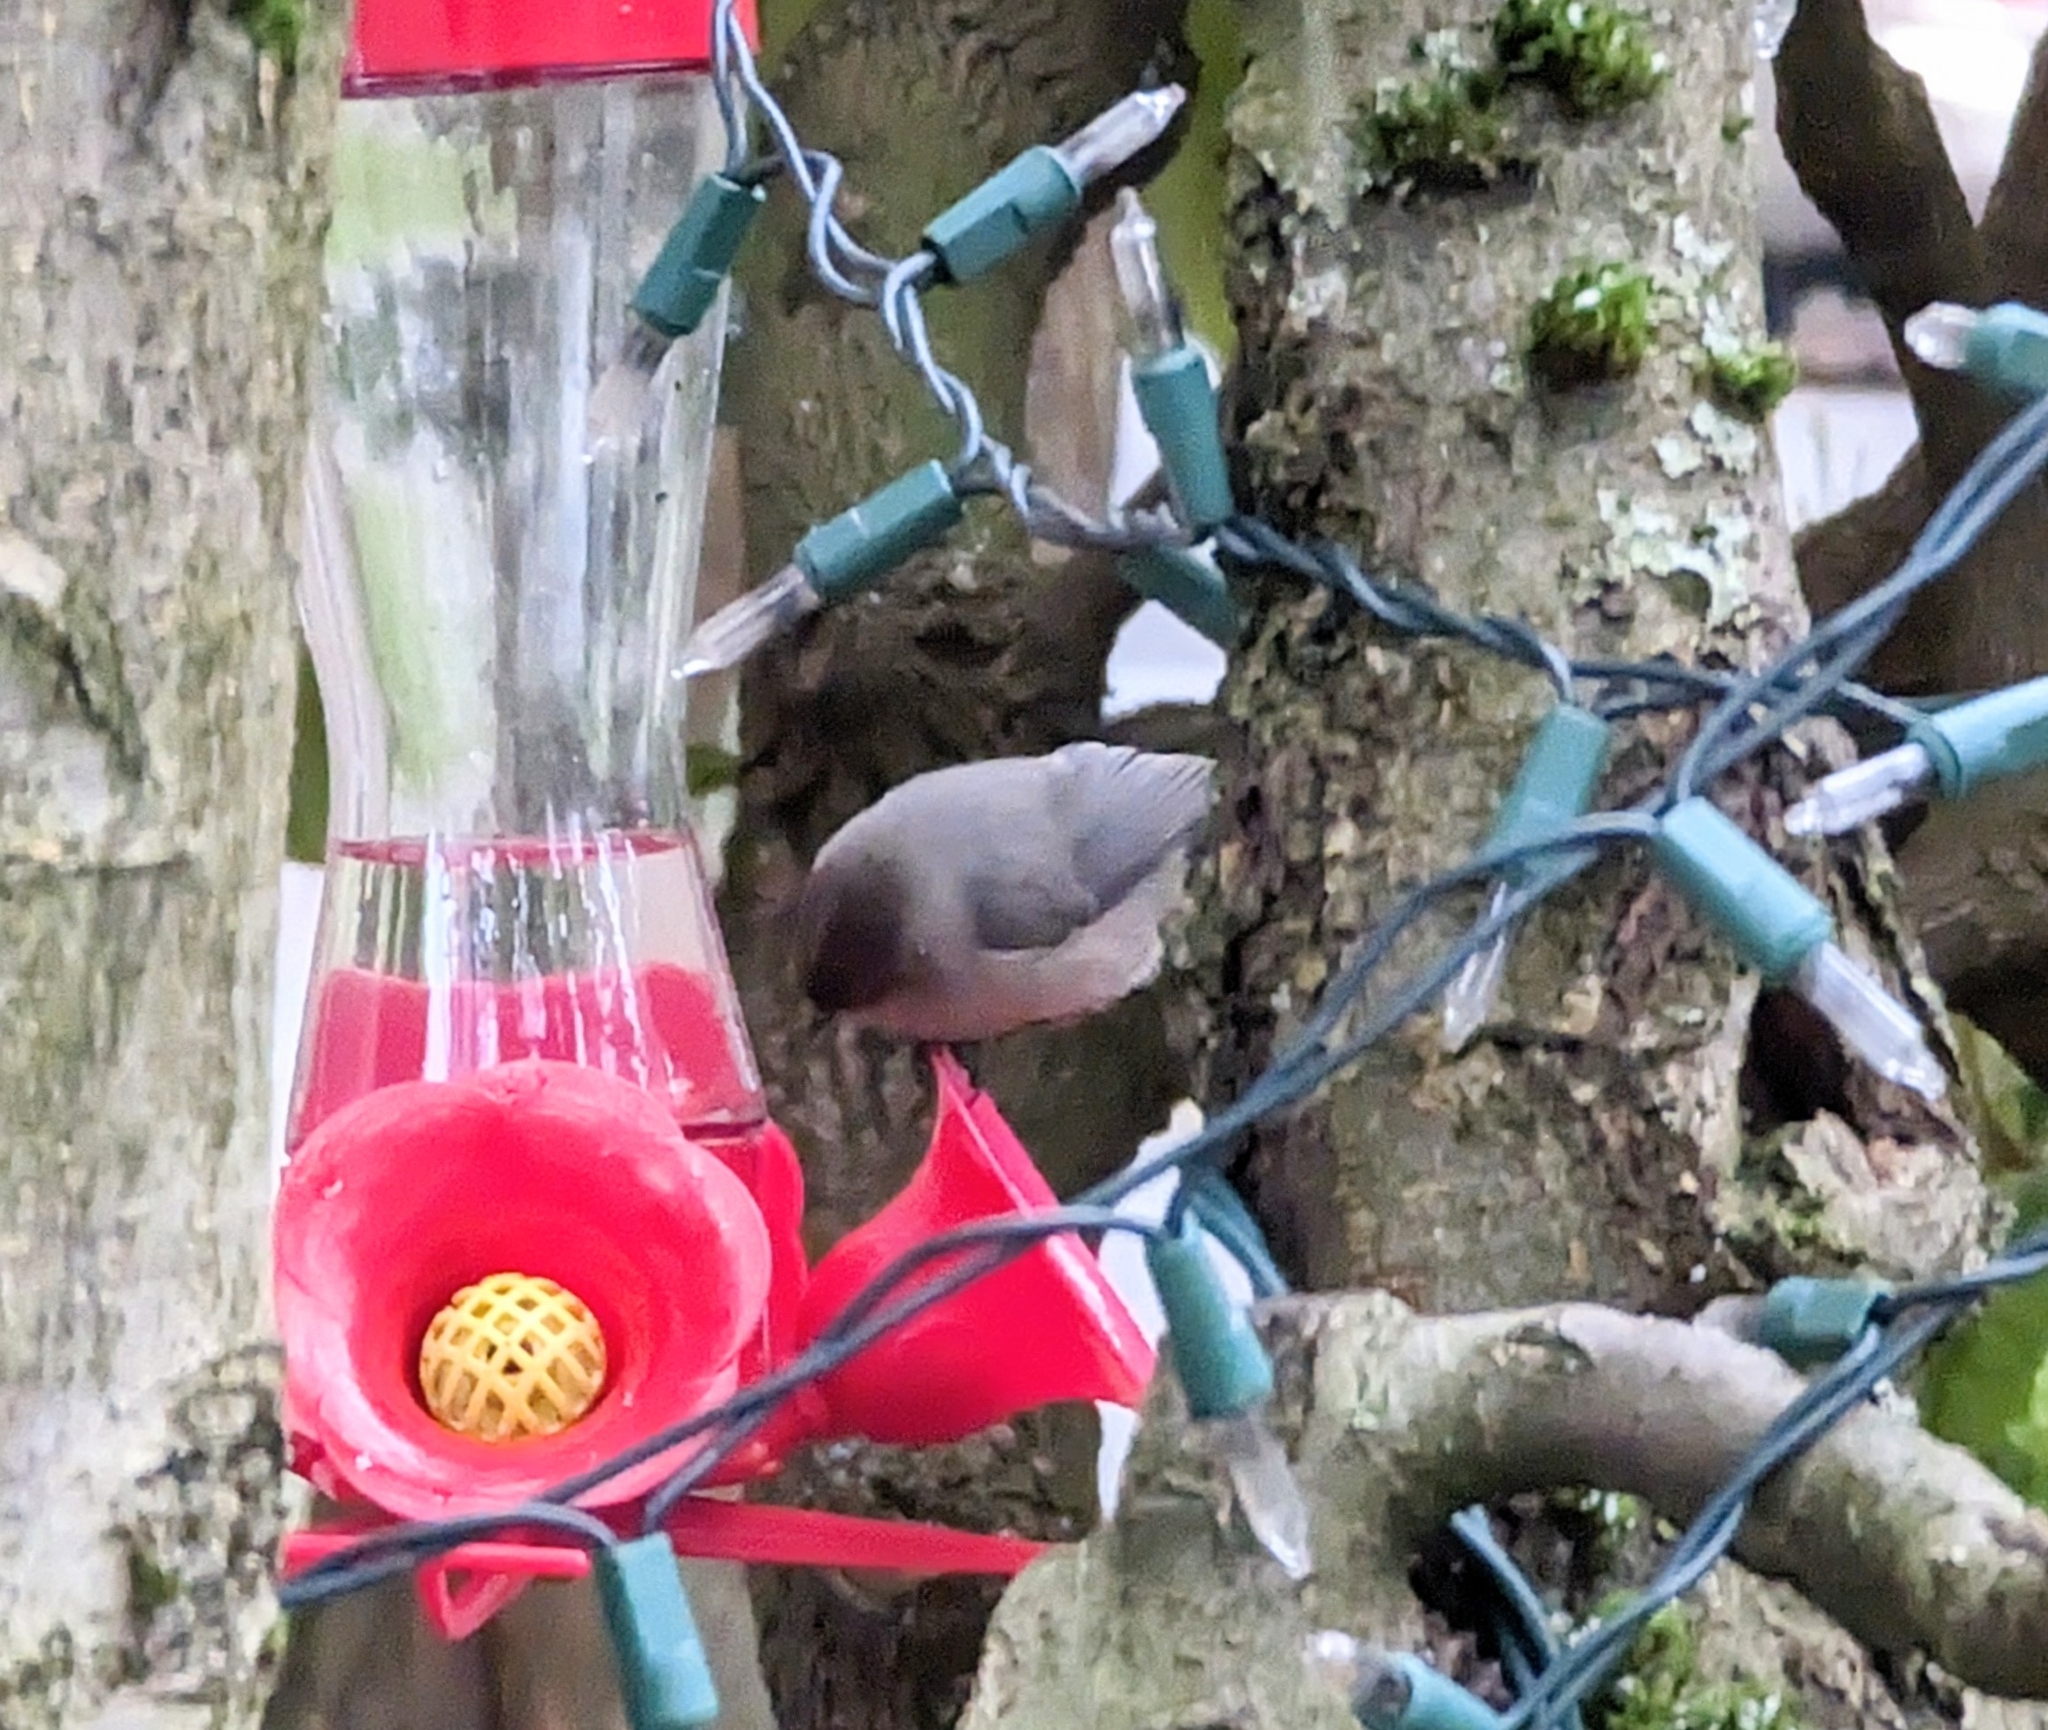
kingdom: Animalia
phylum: Chordata
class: Aves
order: Passeriformes
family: Aegithalidae
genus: Psaltriparus
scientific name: Psaltriparus minimus
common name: American bushtit
